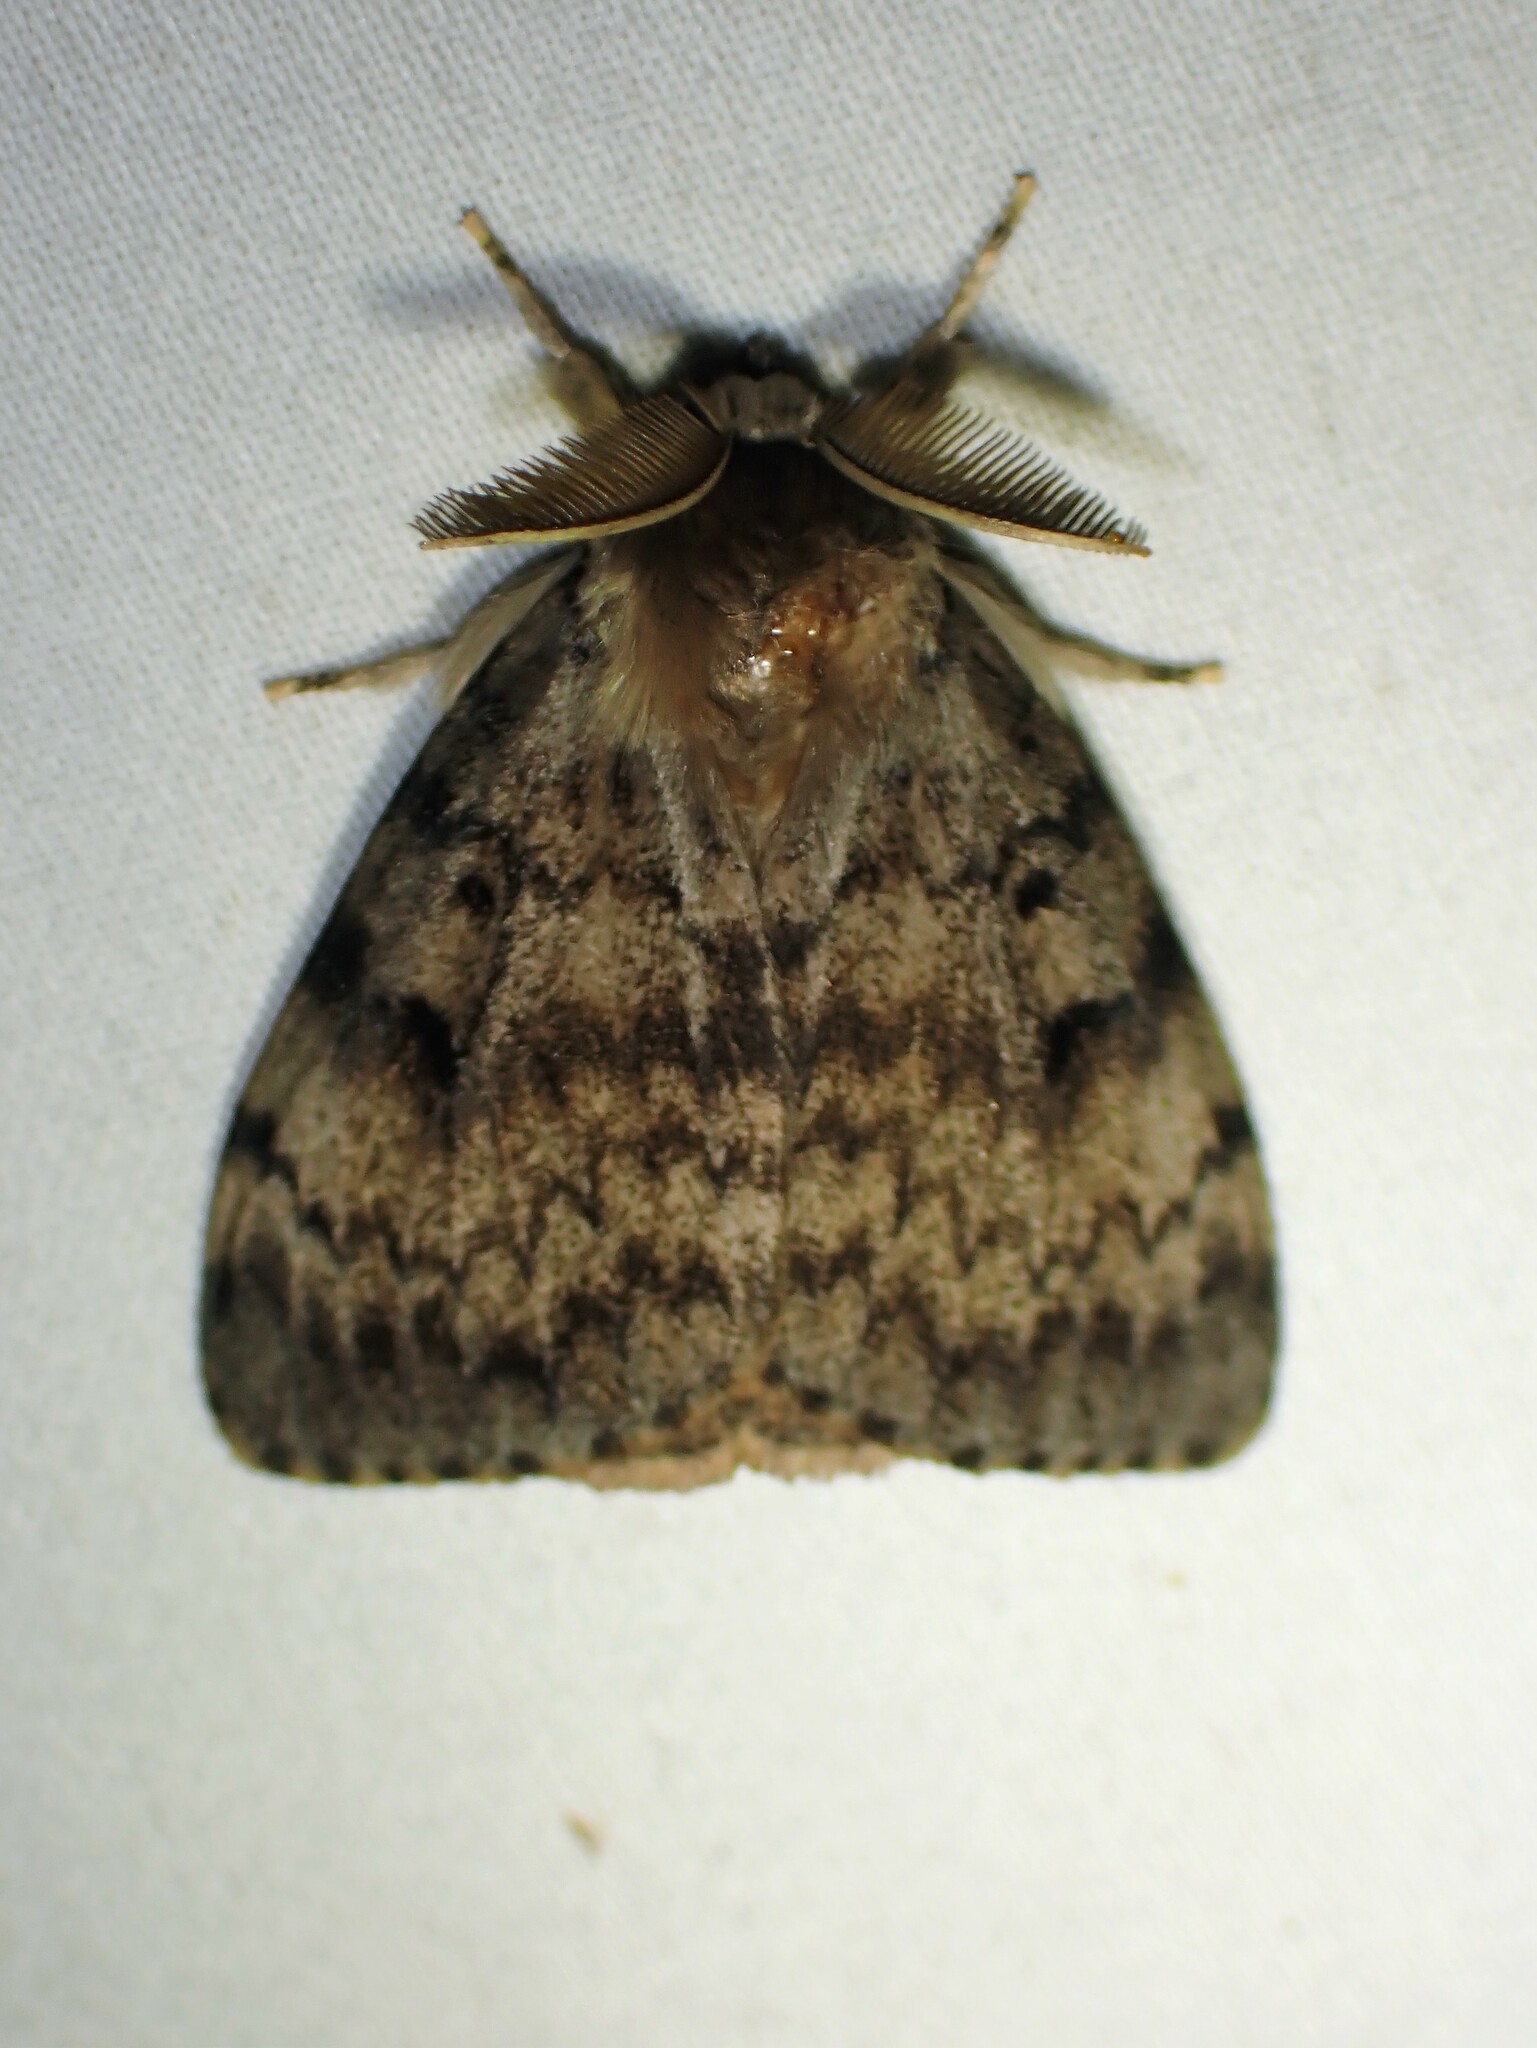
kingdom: Animalia
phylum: Arthropoda
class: Insecta
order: Lepidoptera
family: Erebidae
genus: Lymantria
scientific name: Lymantria dispar
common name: Gypsy moth
